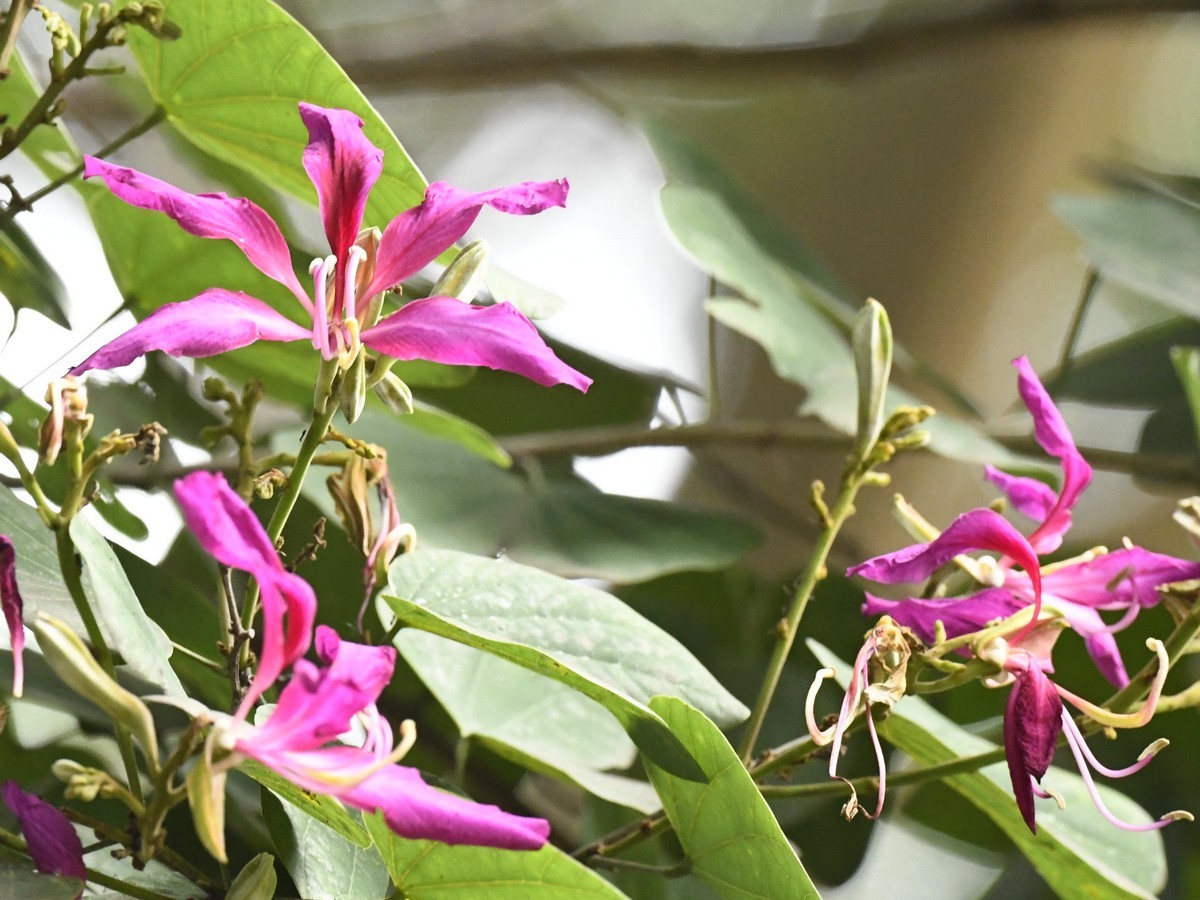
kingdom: Plantae
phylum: Tracheophyta
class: Magnoliopsida
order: Fabales
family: Fabaceae
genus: Bauhinia
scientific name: Bauhinia purpurea
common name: Butterfly-tree
